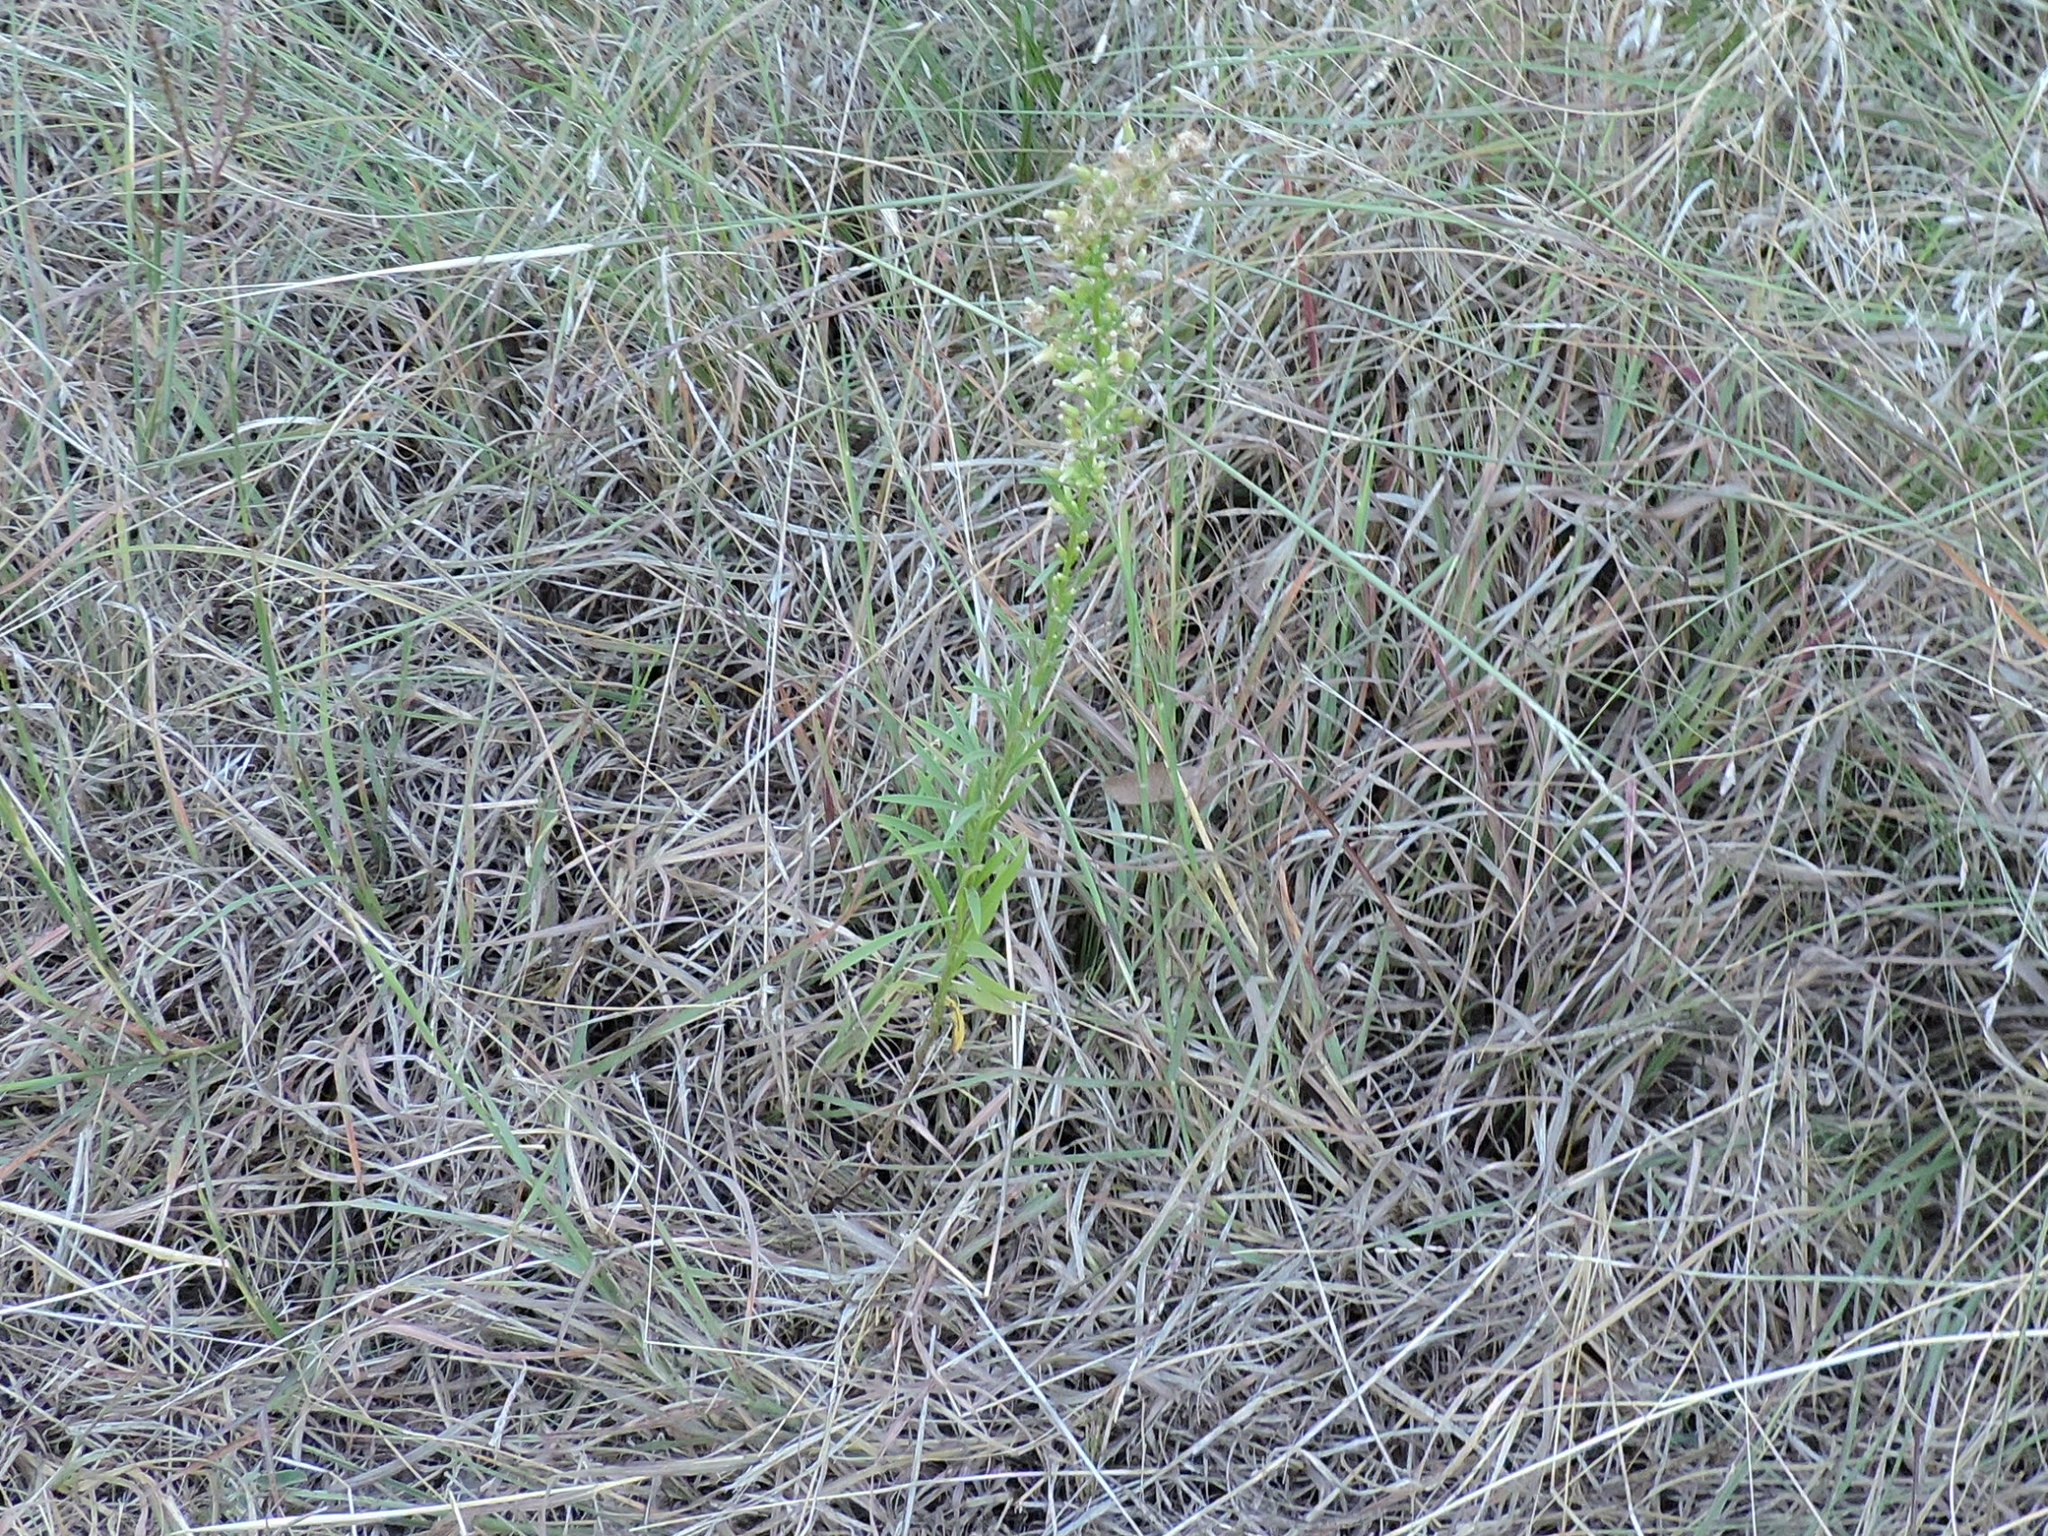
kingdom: Plantae
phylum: Tracheophyta
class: Magnoliopsida
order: Asterales
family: Asteraceae
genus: Erigeron
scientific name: Erigeron canadensis
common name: Canadian fleabane
